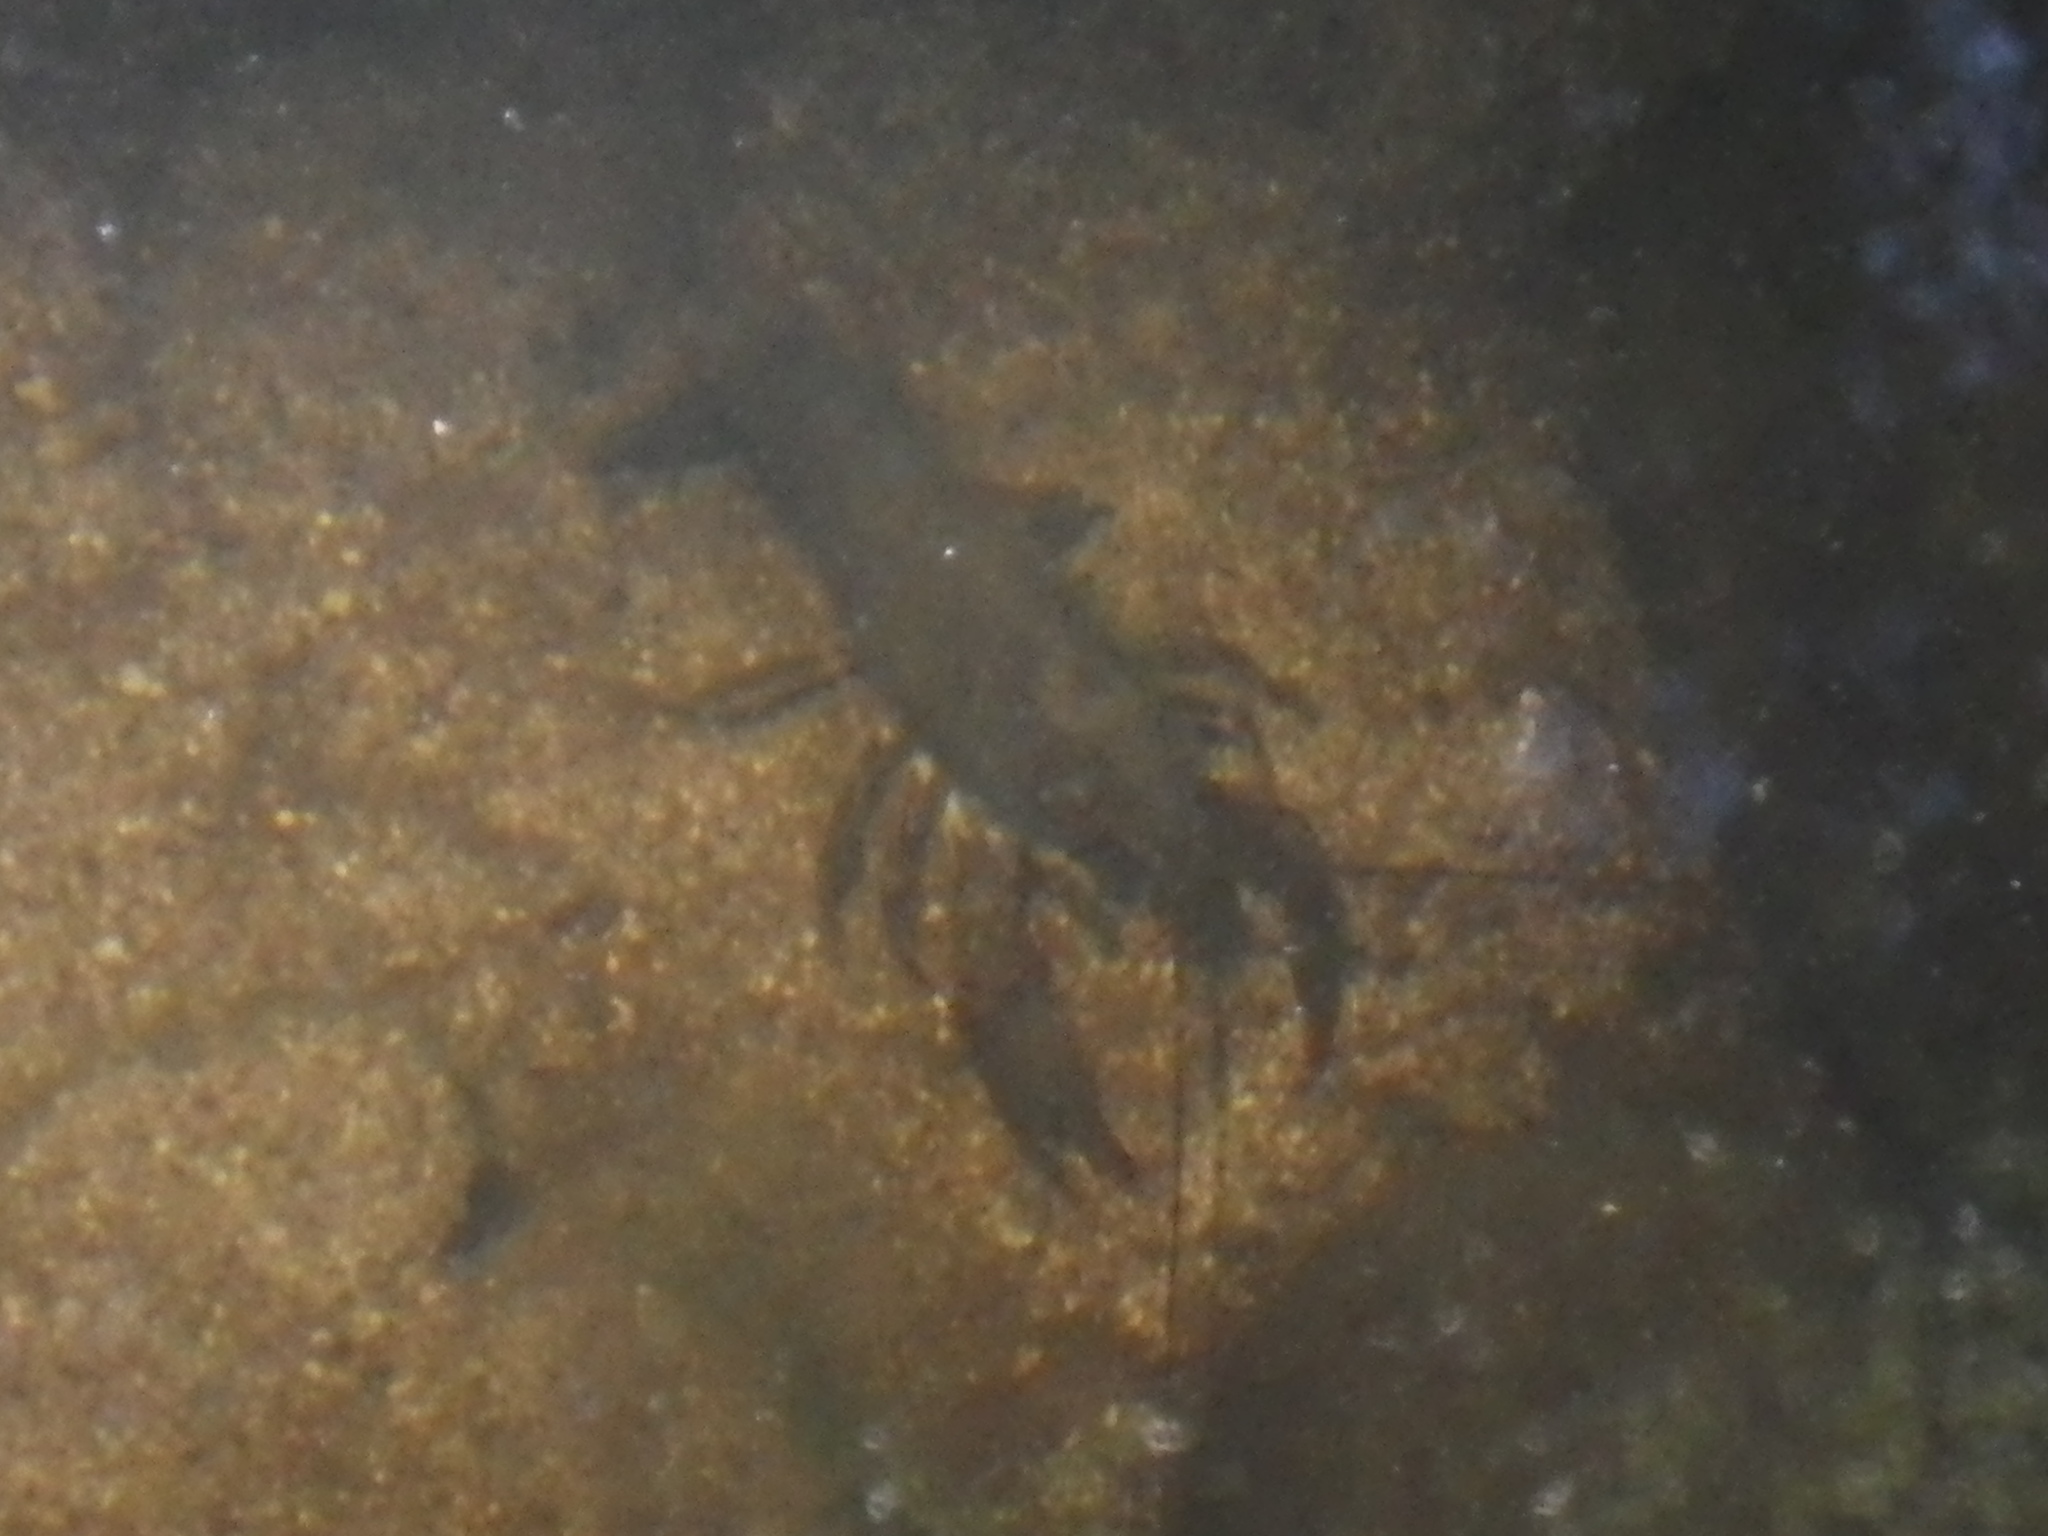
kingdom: Animalia
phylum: Arthropoda
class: Malacostraca
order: Decapoda
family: Cambaridae
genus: Procambarus
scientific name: Procambarus clarkii
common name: Red swamp crayfish
